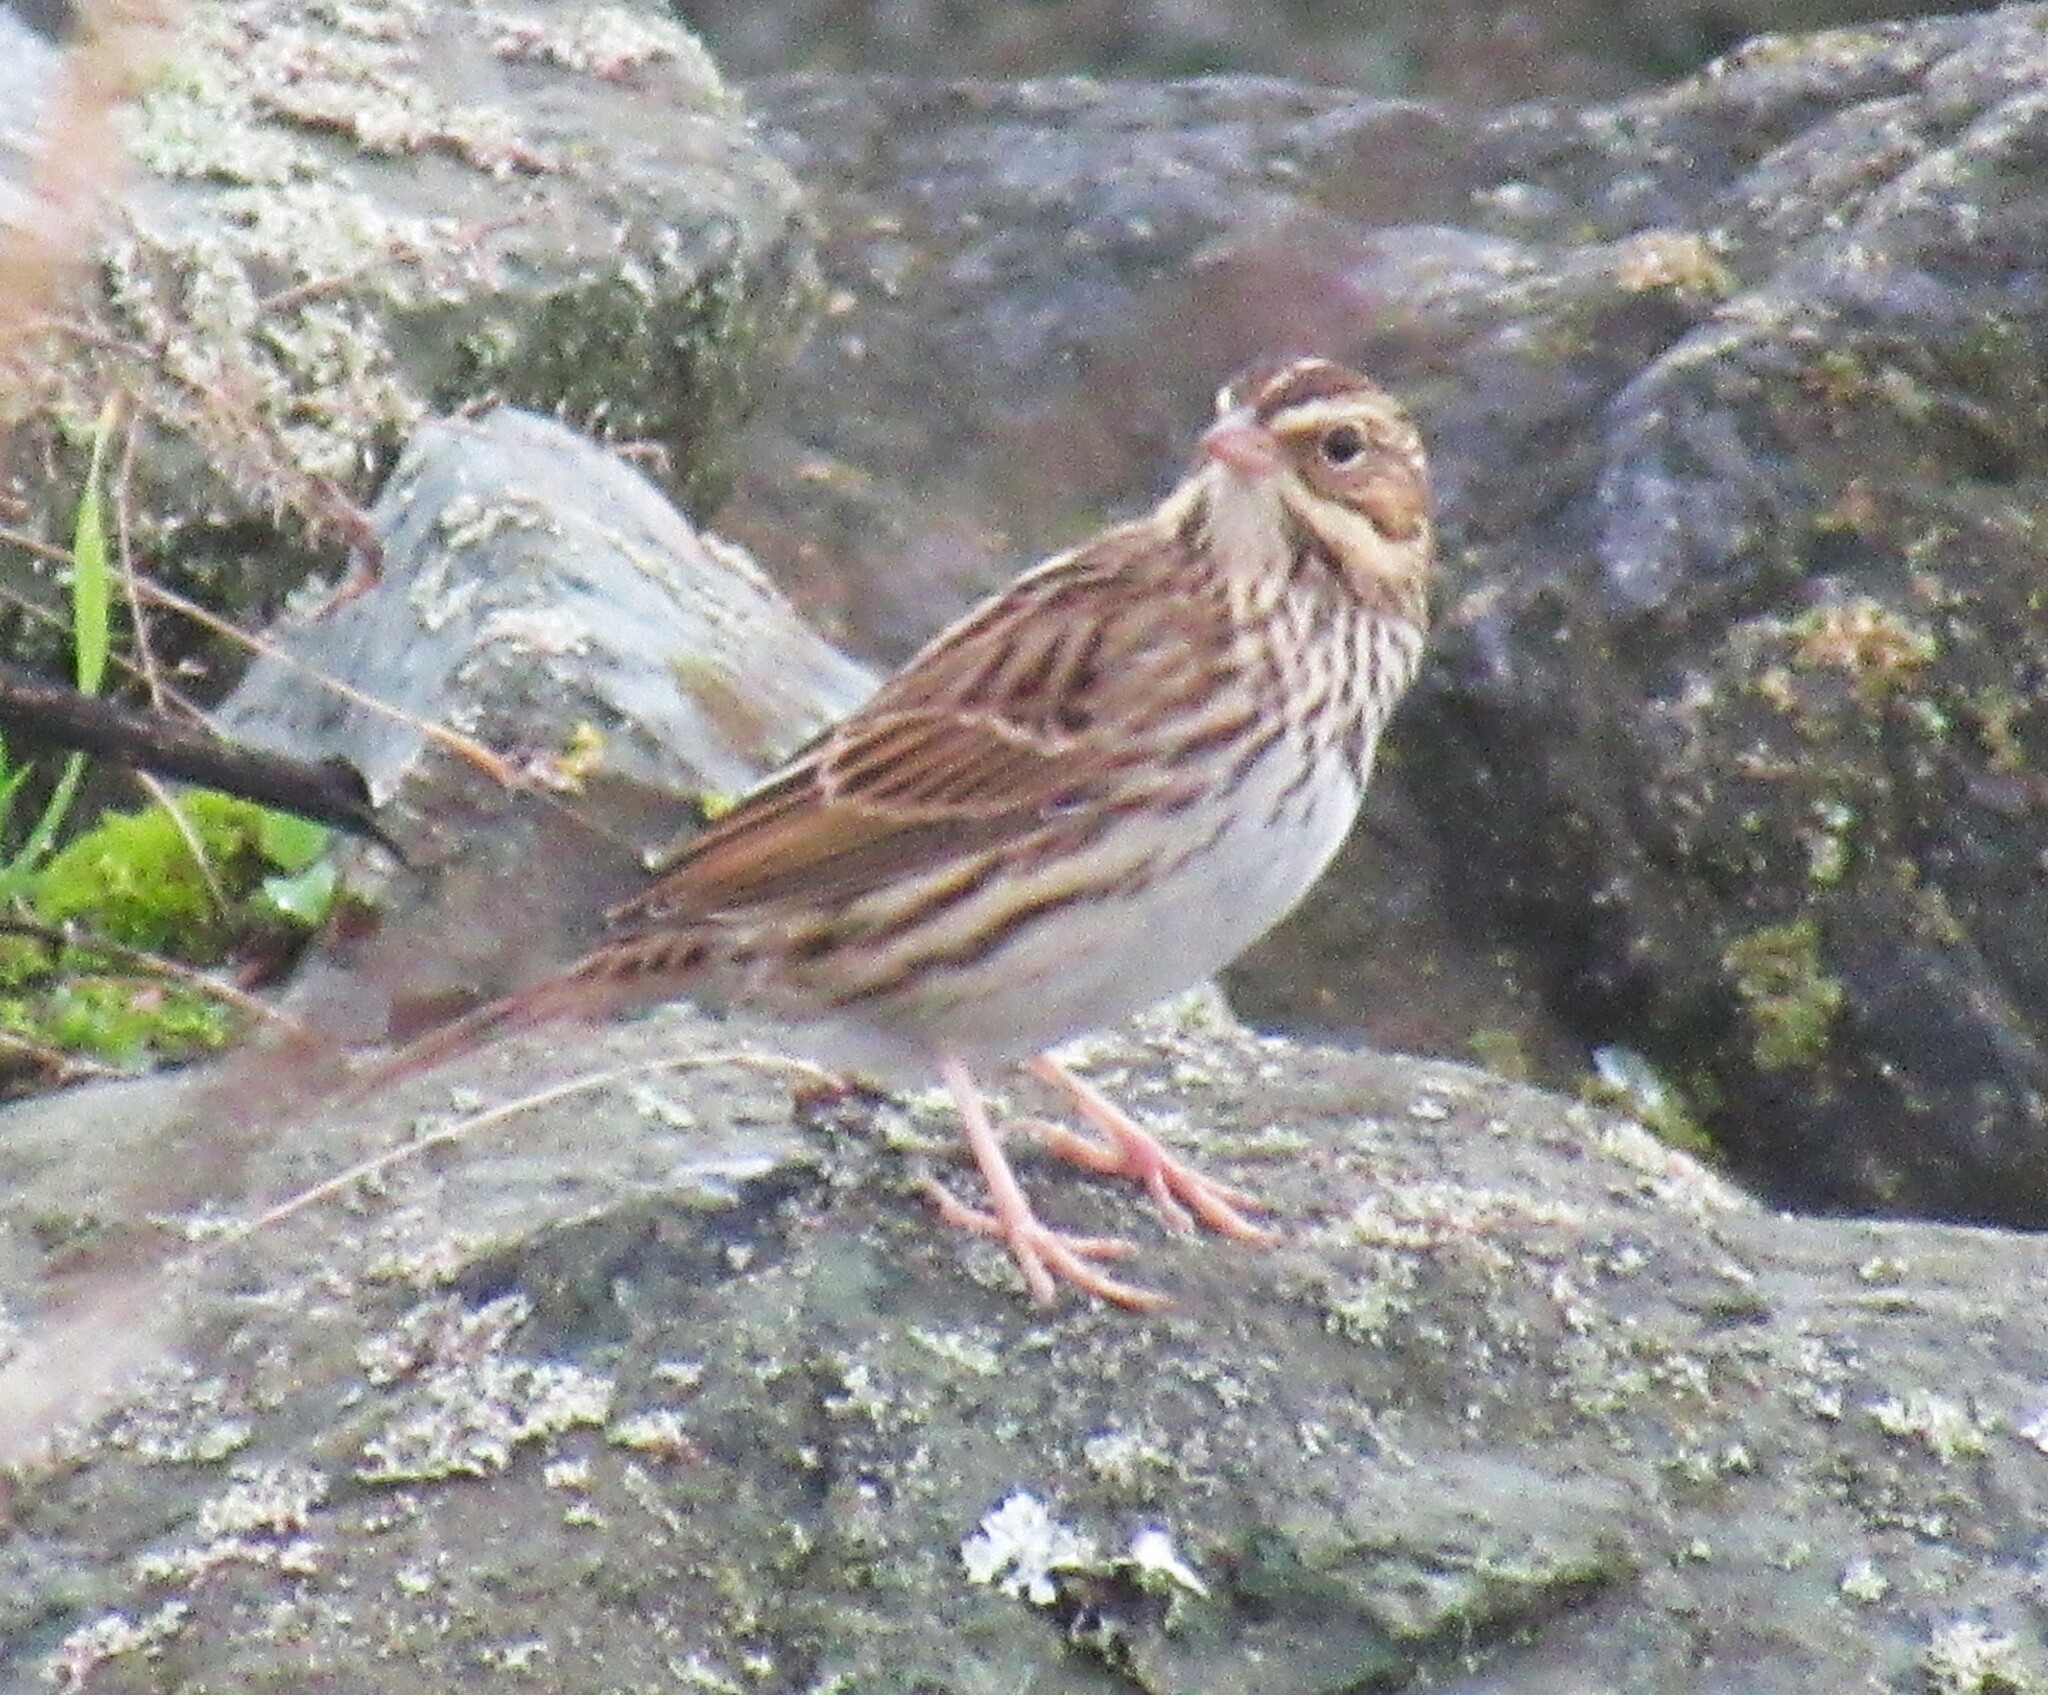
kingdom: Animalia
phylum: Chordata
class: Aves
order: Passeriformes
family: Passerellidae
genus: Passerculus
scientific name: Passerculus sandwichensis
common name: Savannah sparrow
